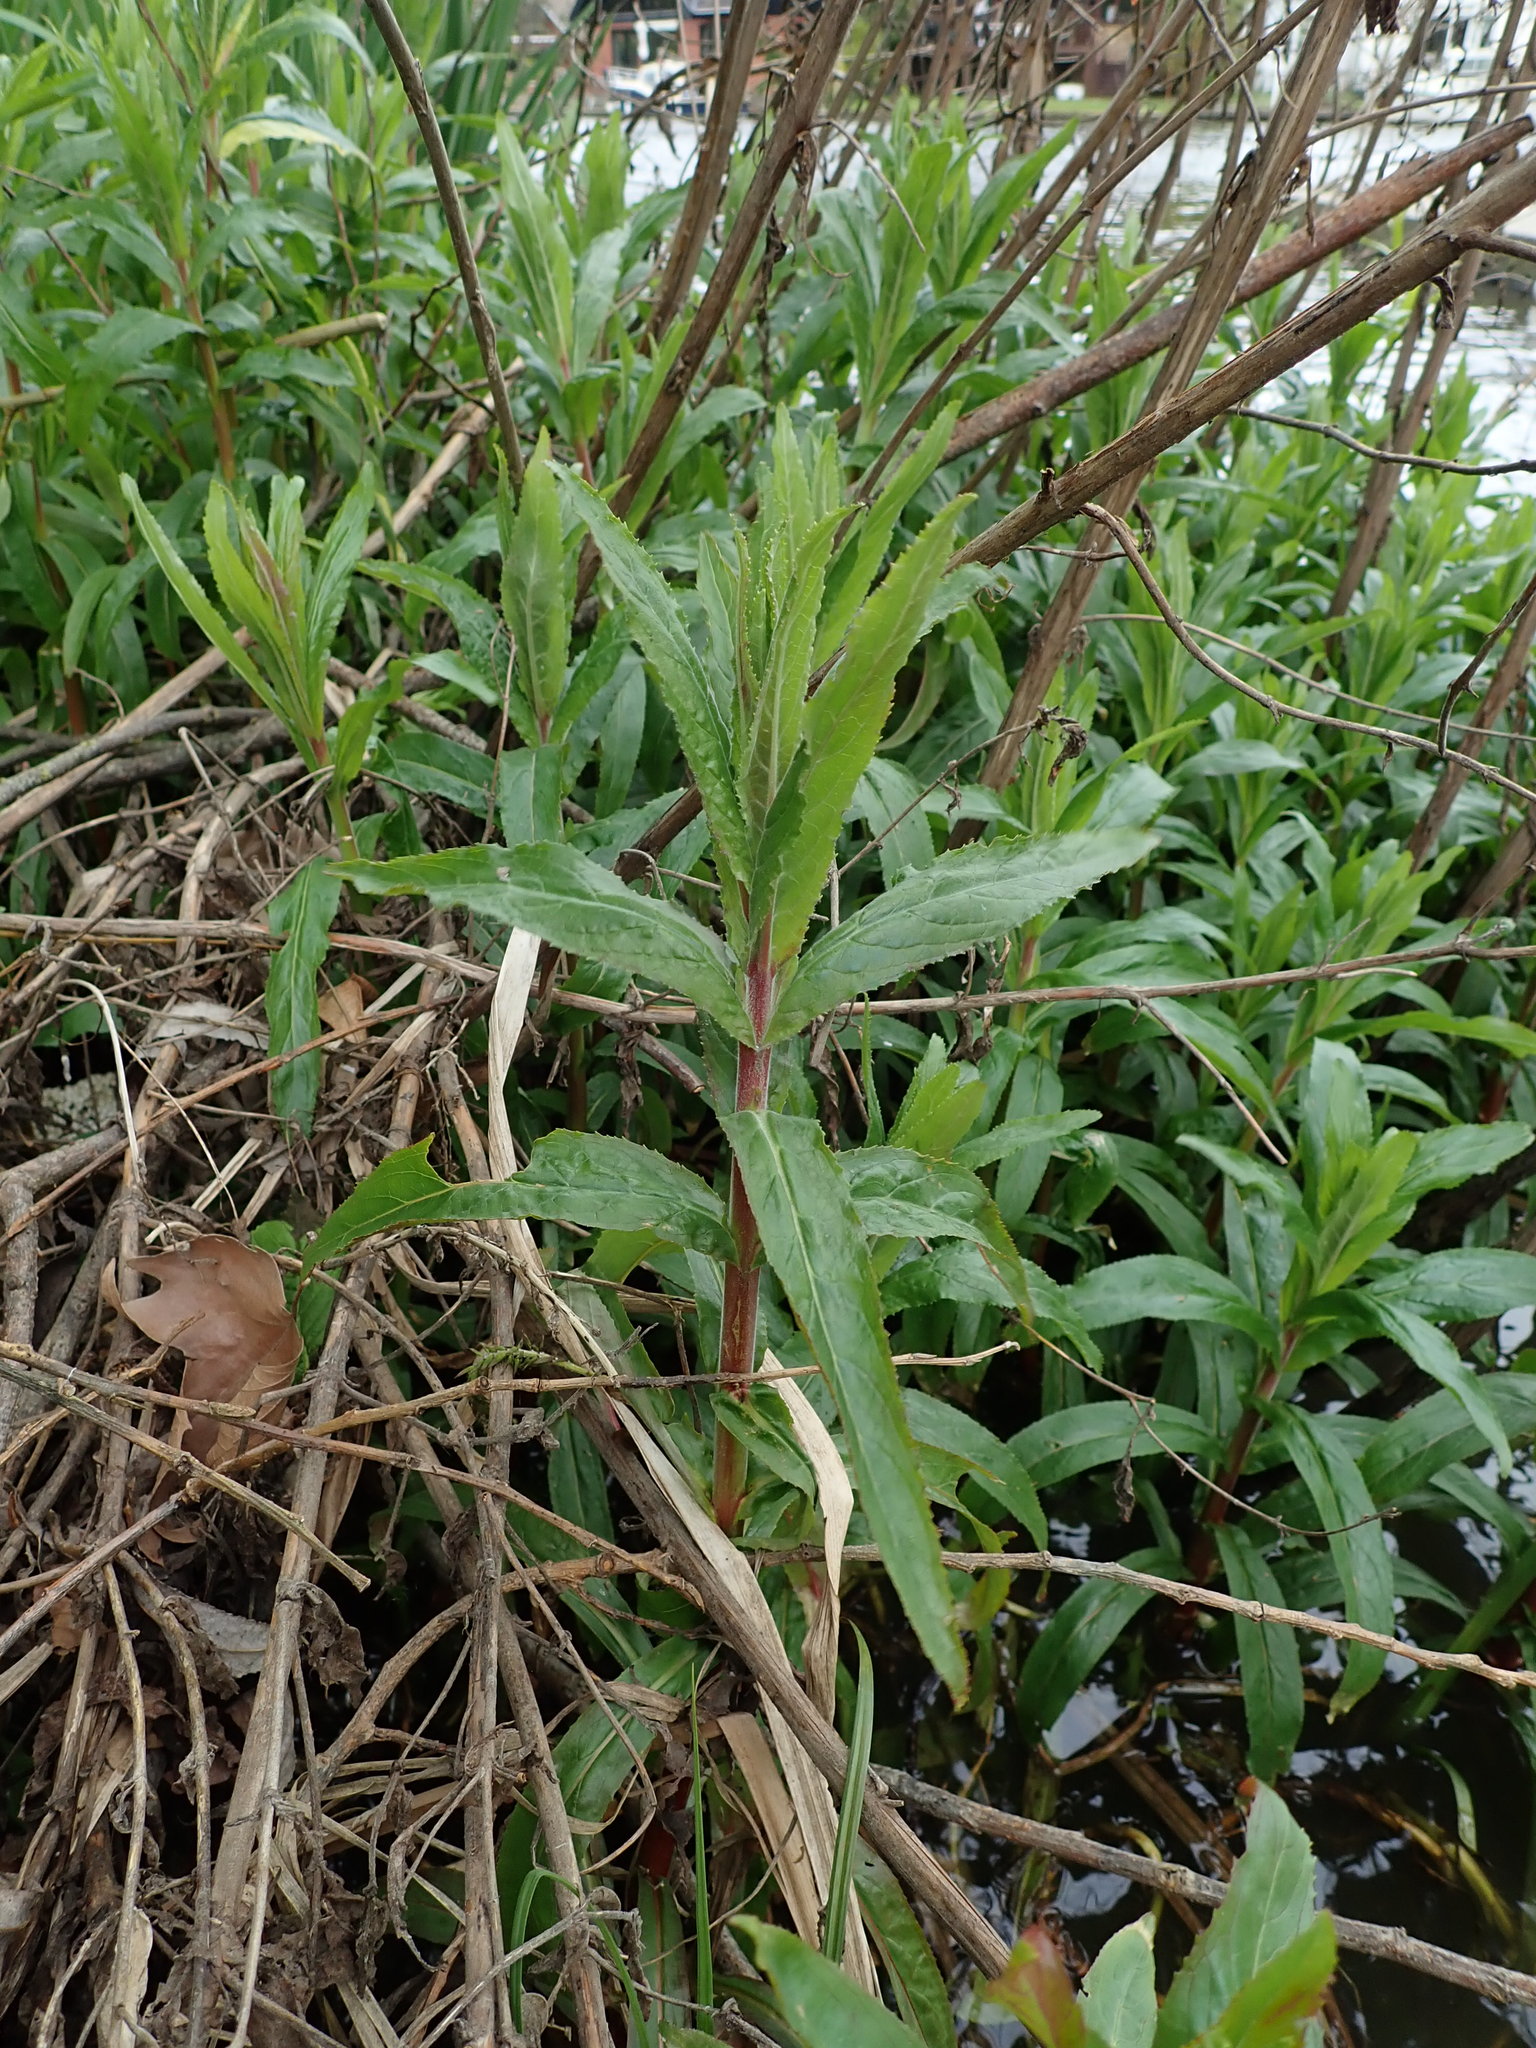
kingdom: Plantae
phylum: Tracheophyta
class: Magnoliopsida
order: Myrtales
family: Onagraceae
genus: Epilobium
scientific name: Epilobium hirsutum
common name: Great willowherb
